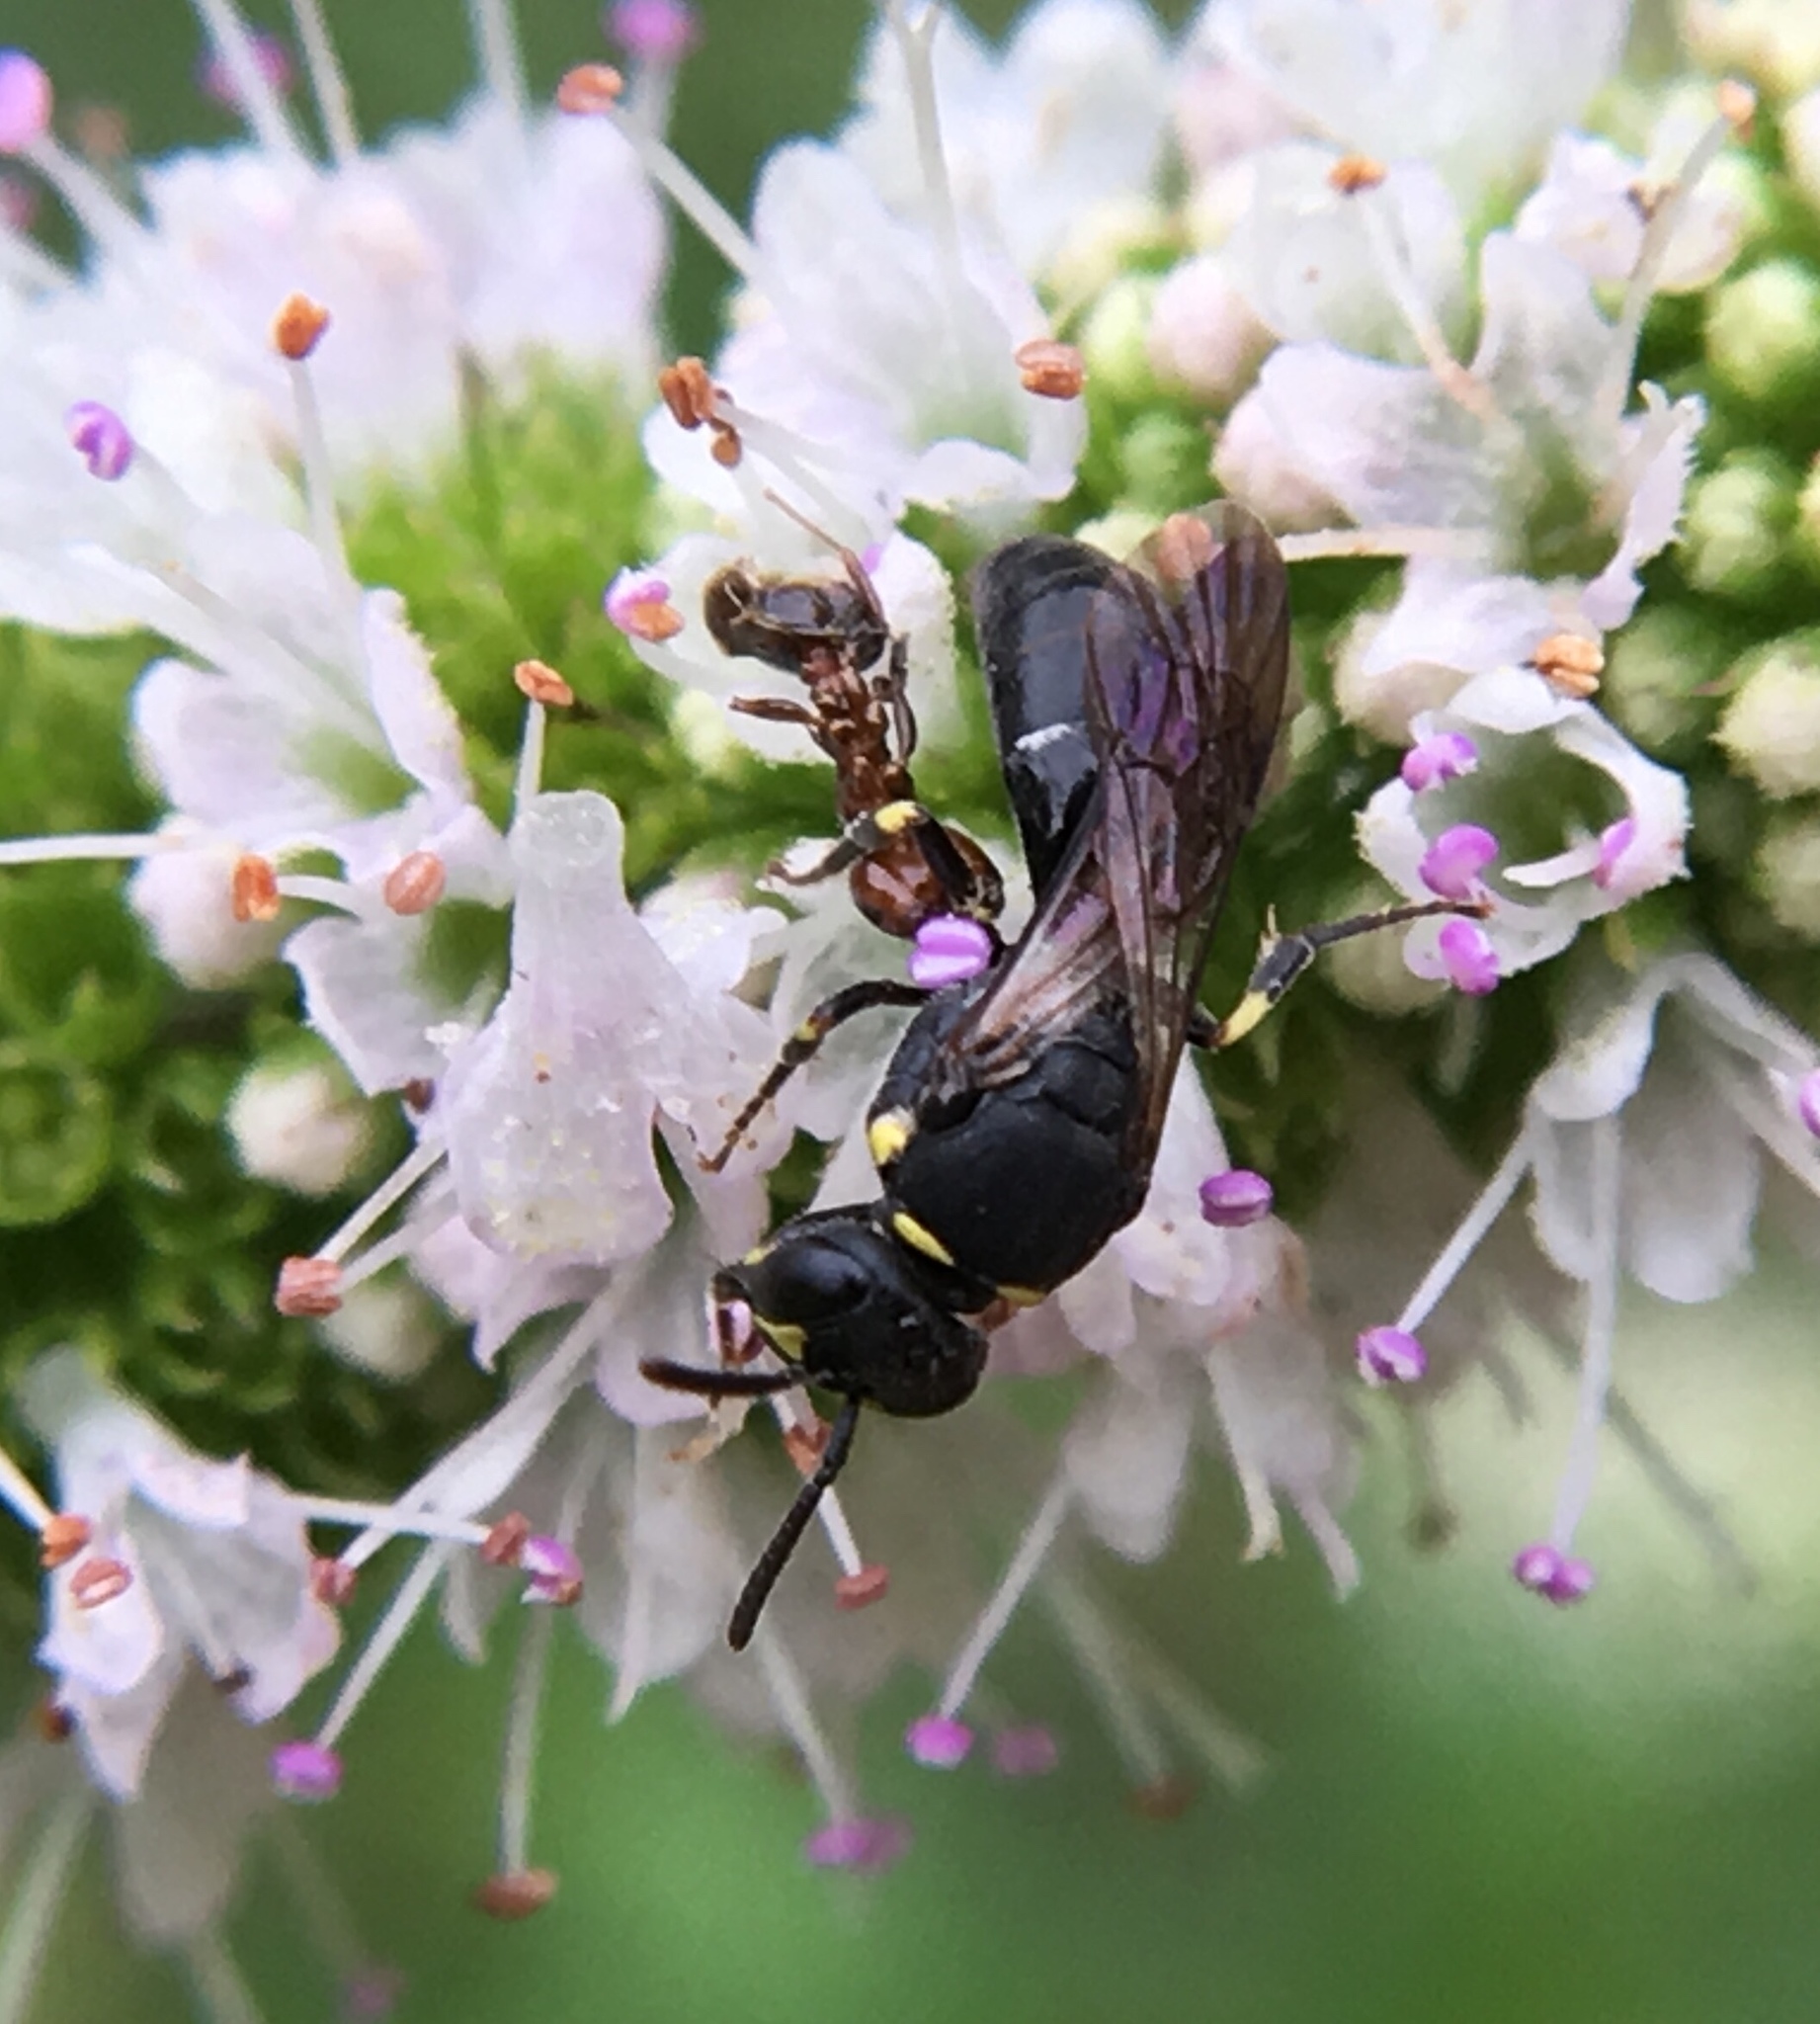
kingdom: Animalia
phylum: Arthropoda
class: Insecta
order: Hymenoptera
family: Colletidae
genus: Hylaeus
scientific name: Hylaeus modestus
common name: Yellow-faced bee
